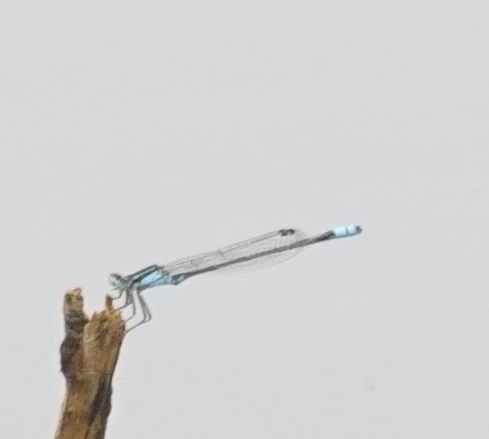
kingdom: Animalia
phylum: Arthropoda
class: Insecta
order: Odonata
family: Coenagrionidae
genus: Ischnura
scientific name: Ischnura heterosticta
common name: Common bluetail
